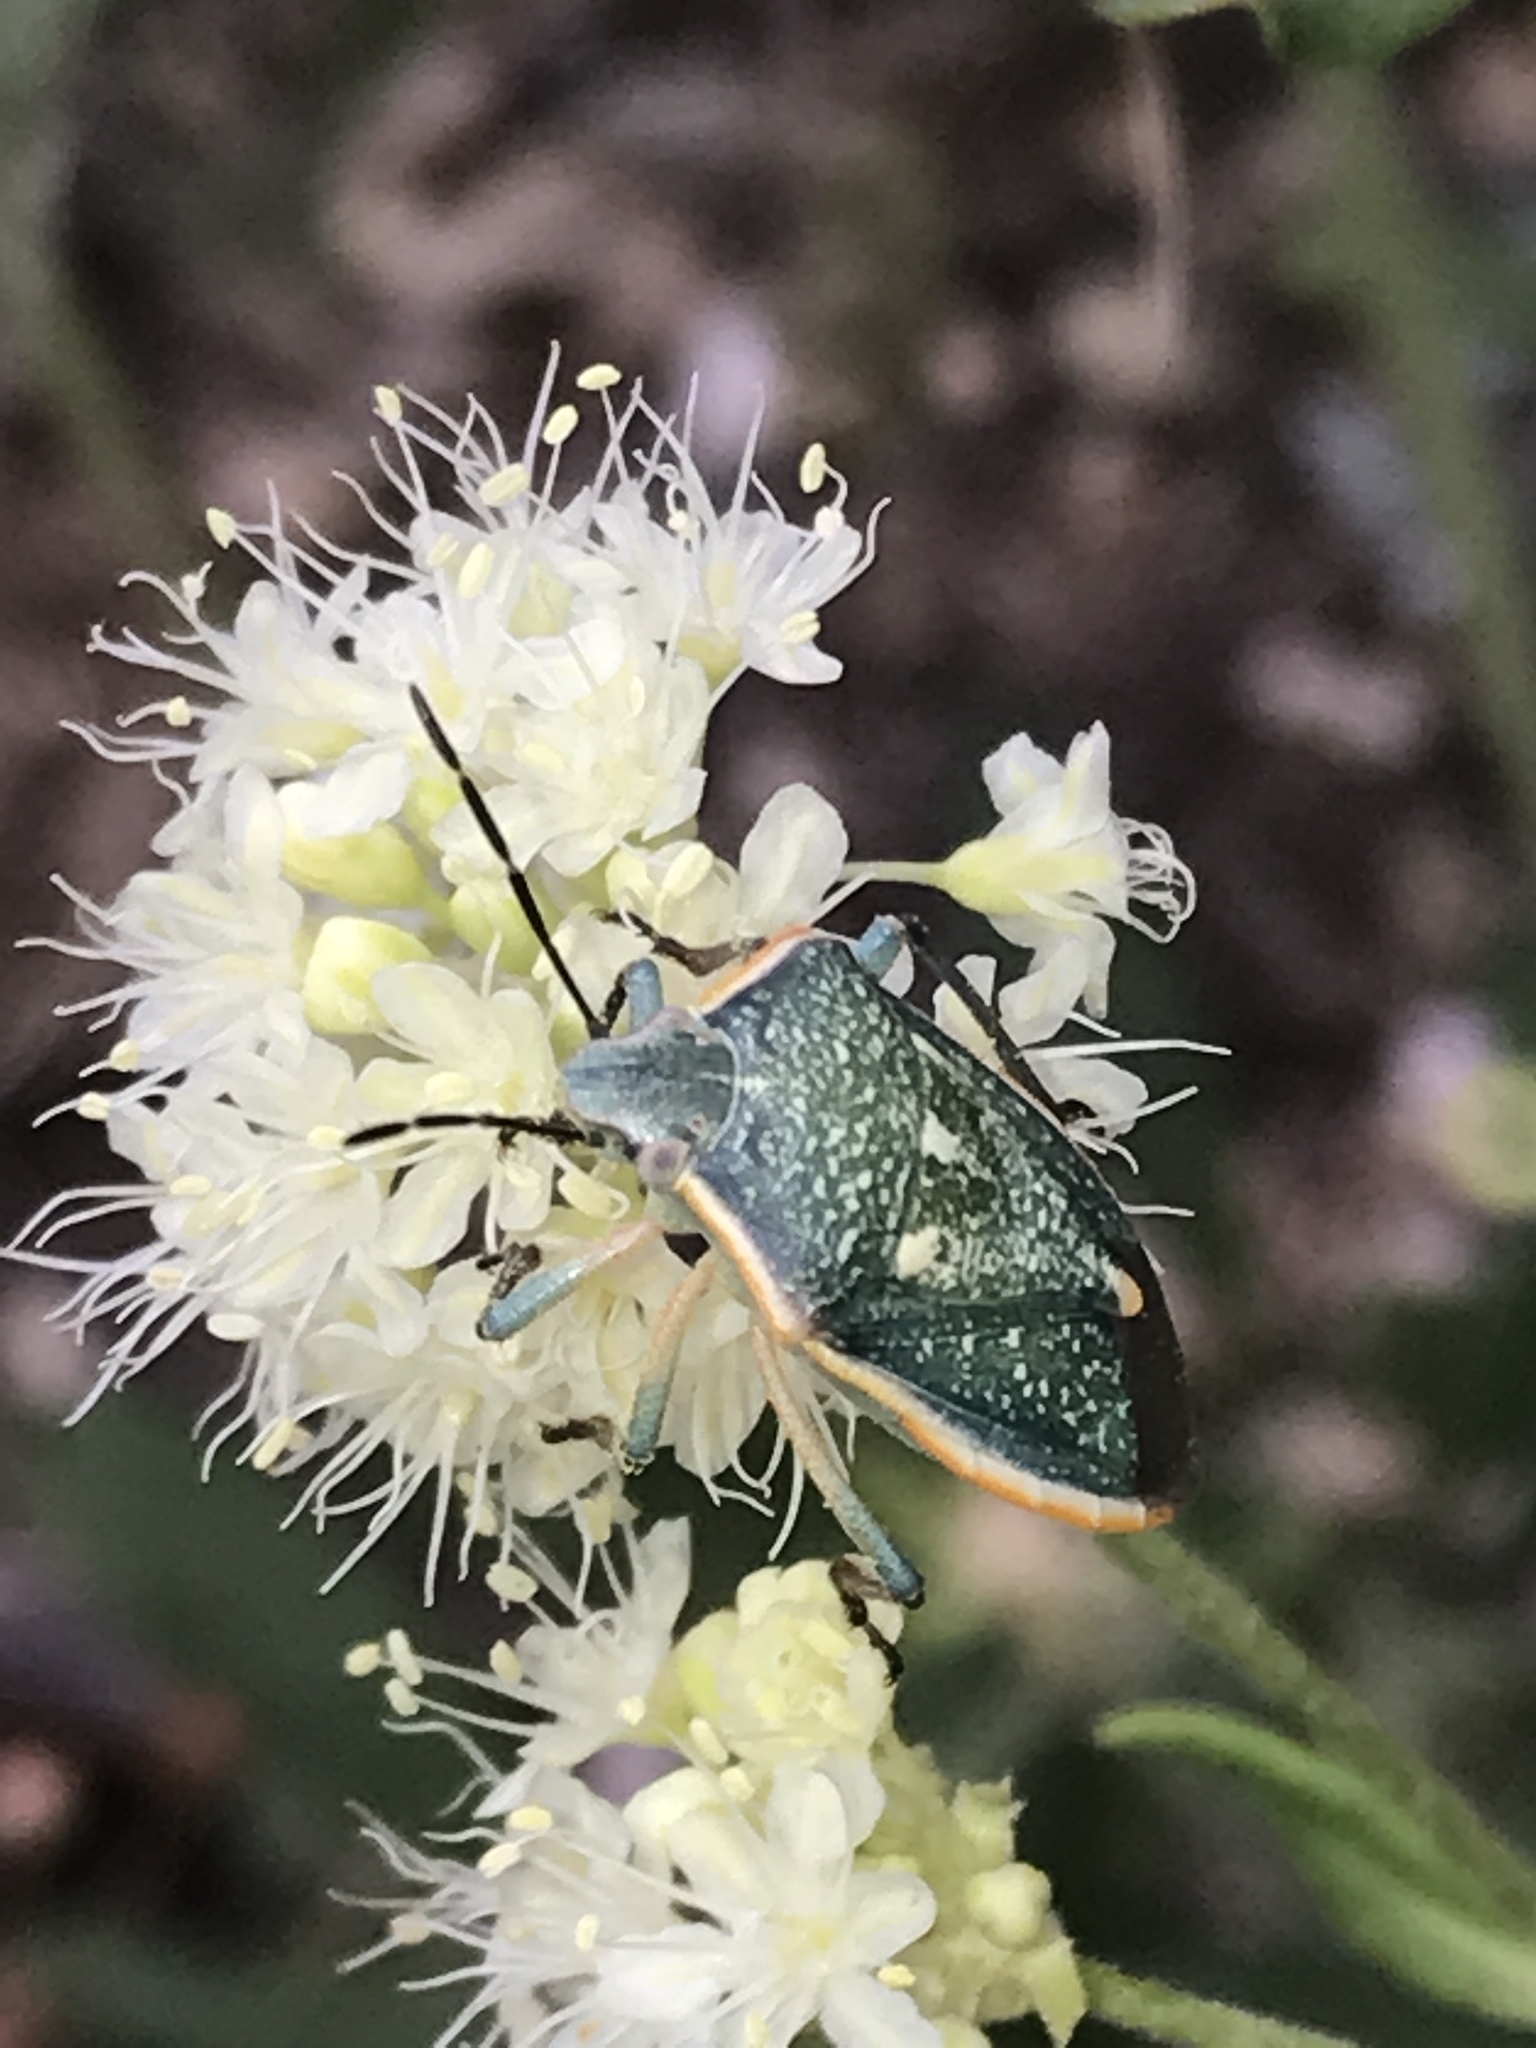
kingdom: Animalia
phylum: Arthropoda
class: Insecta
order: Hemiptera
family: Pentatomidae
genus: Chlorochroa
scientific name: Chlorochroa sayi
